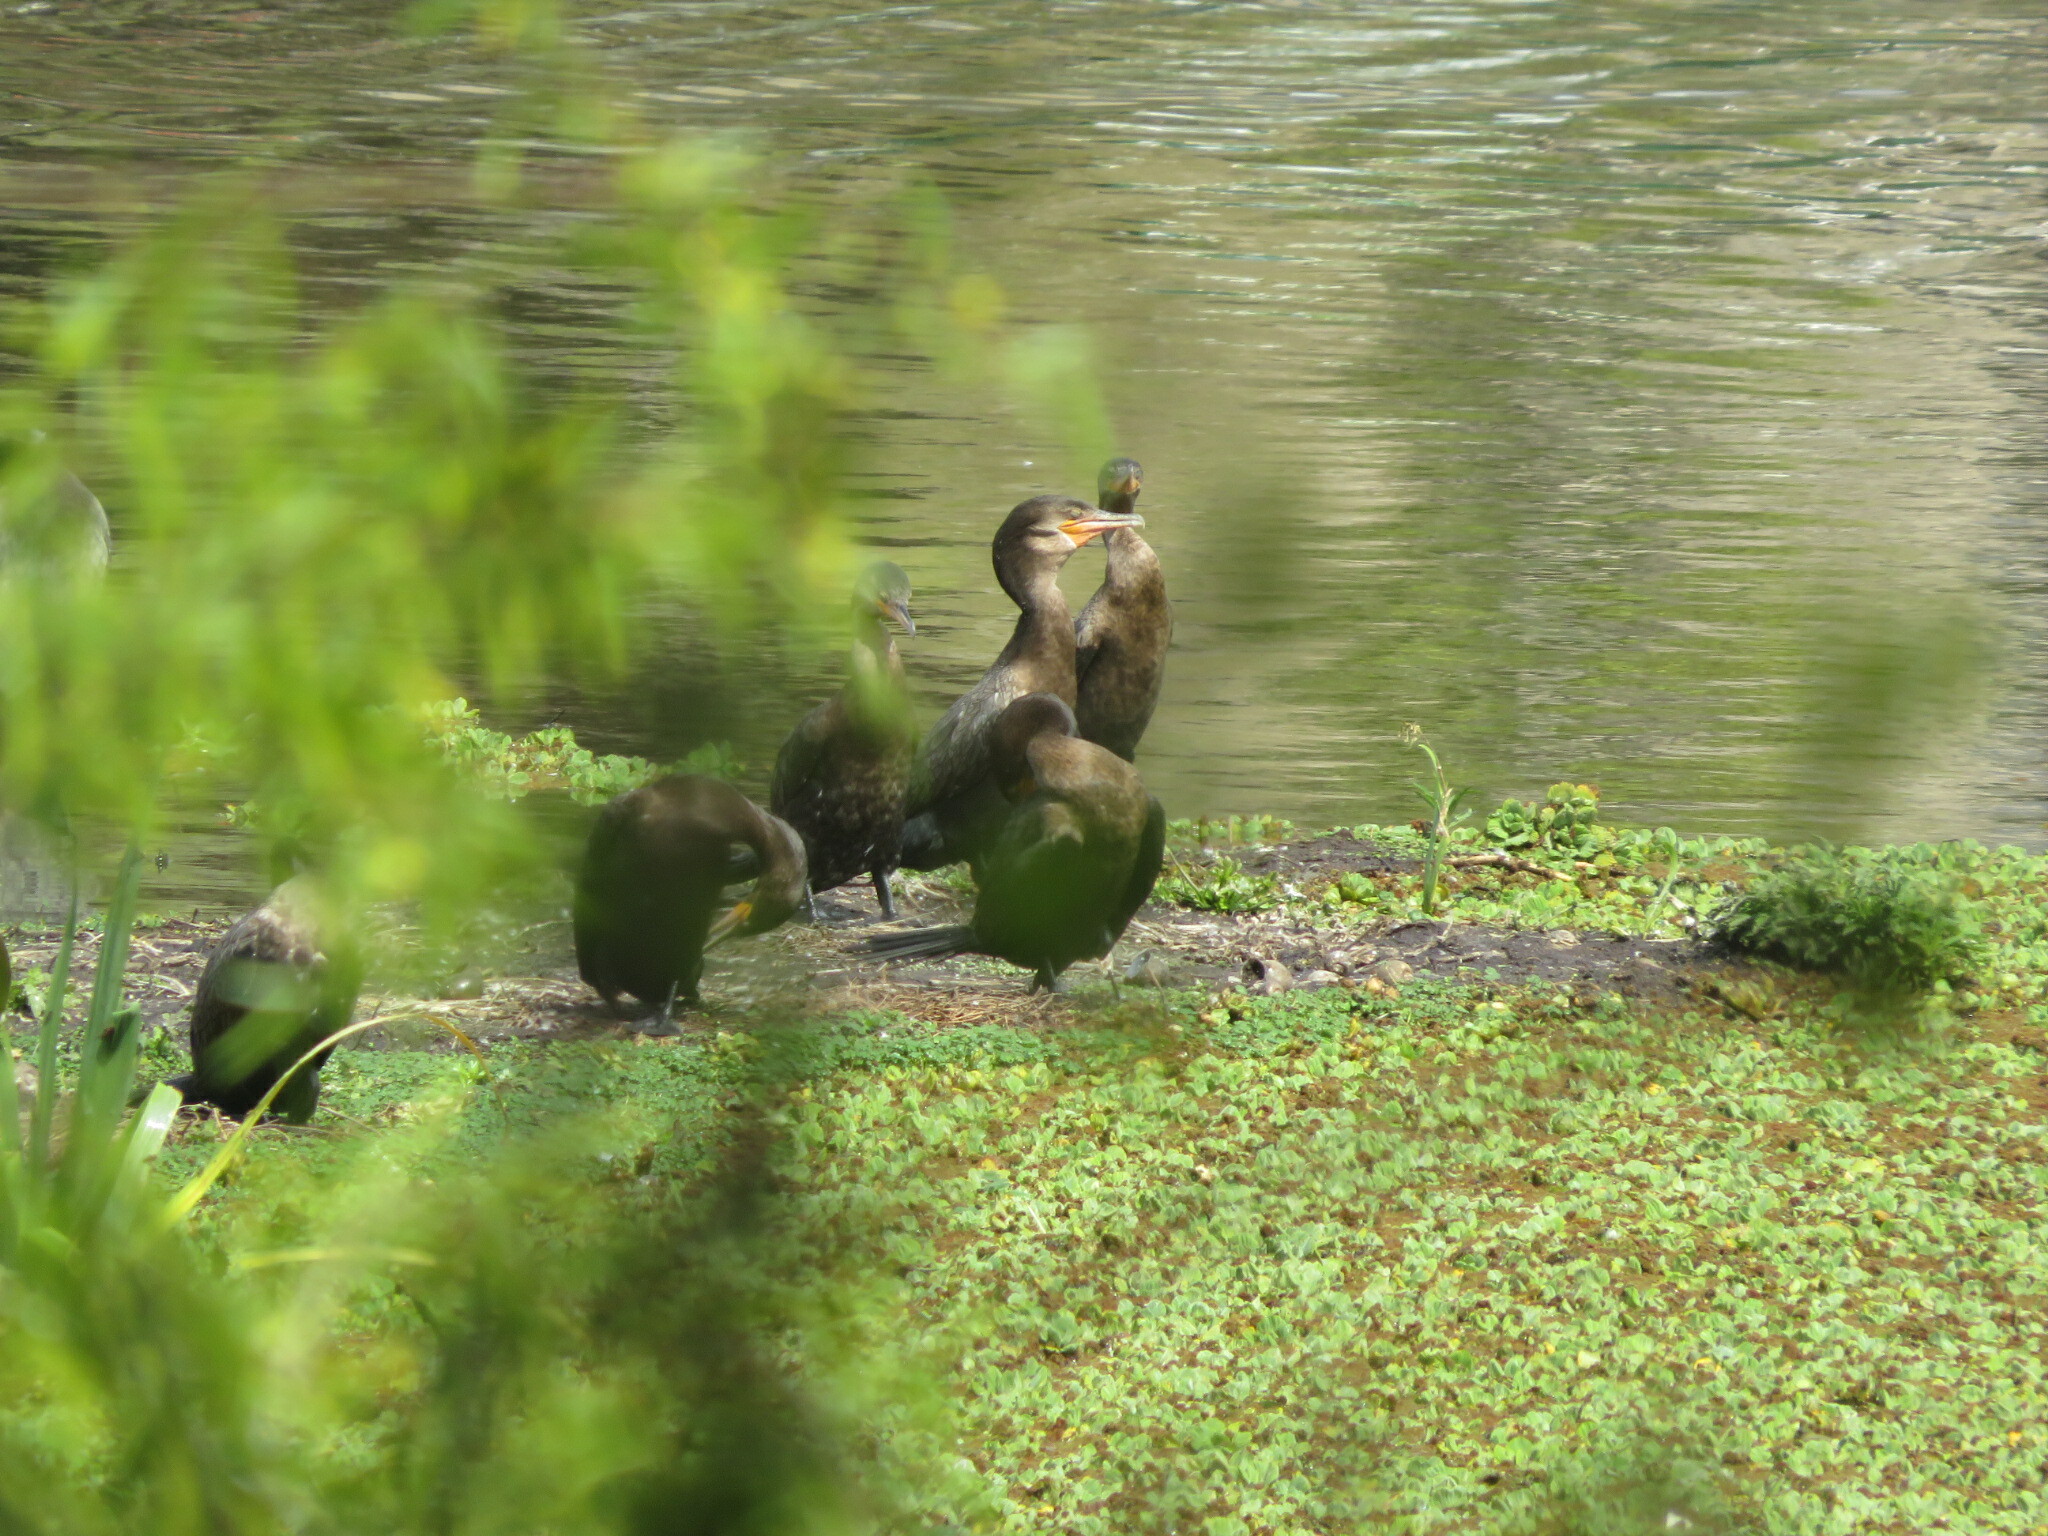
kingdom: Animalia
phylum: Chordata
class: Aves
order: Suliformes
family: Phalacrocoracidae
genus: Phalacrocorax
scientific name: Phalacrocorax brasilianus
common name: Neotropic cormorant
